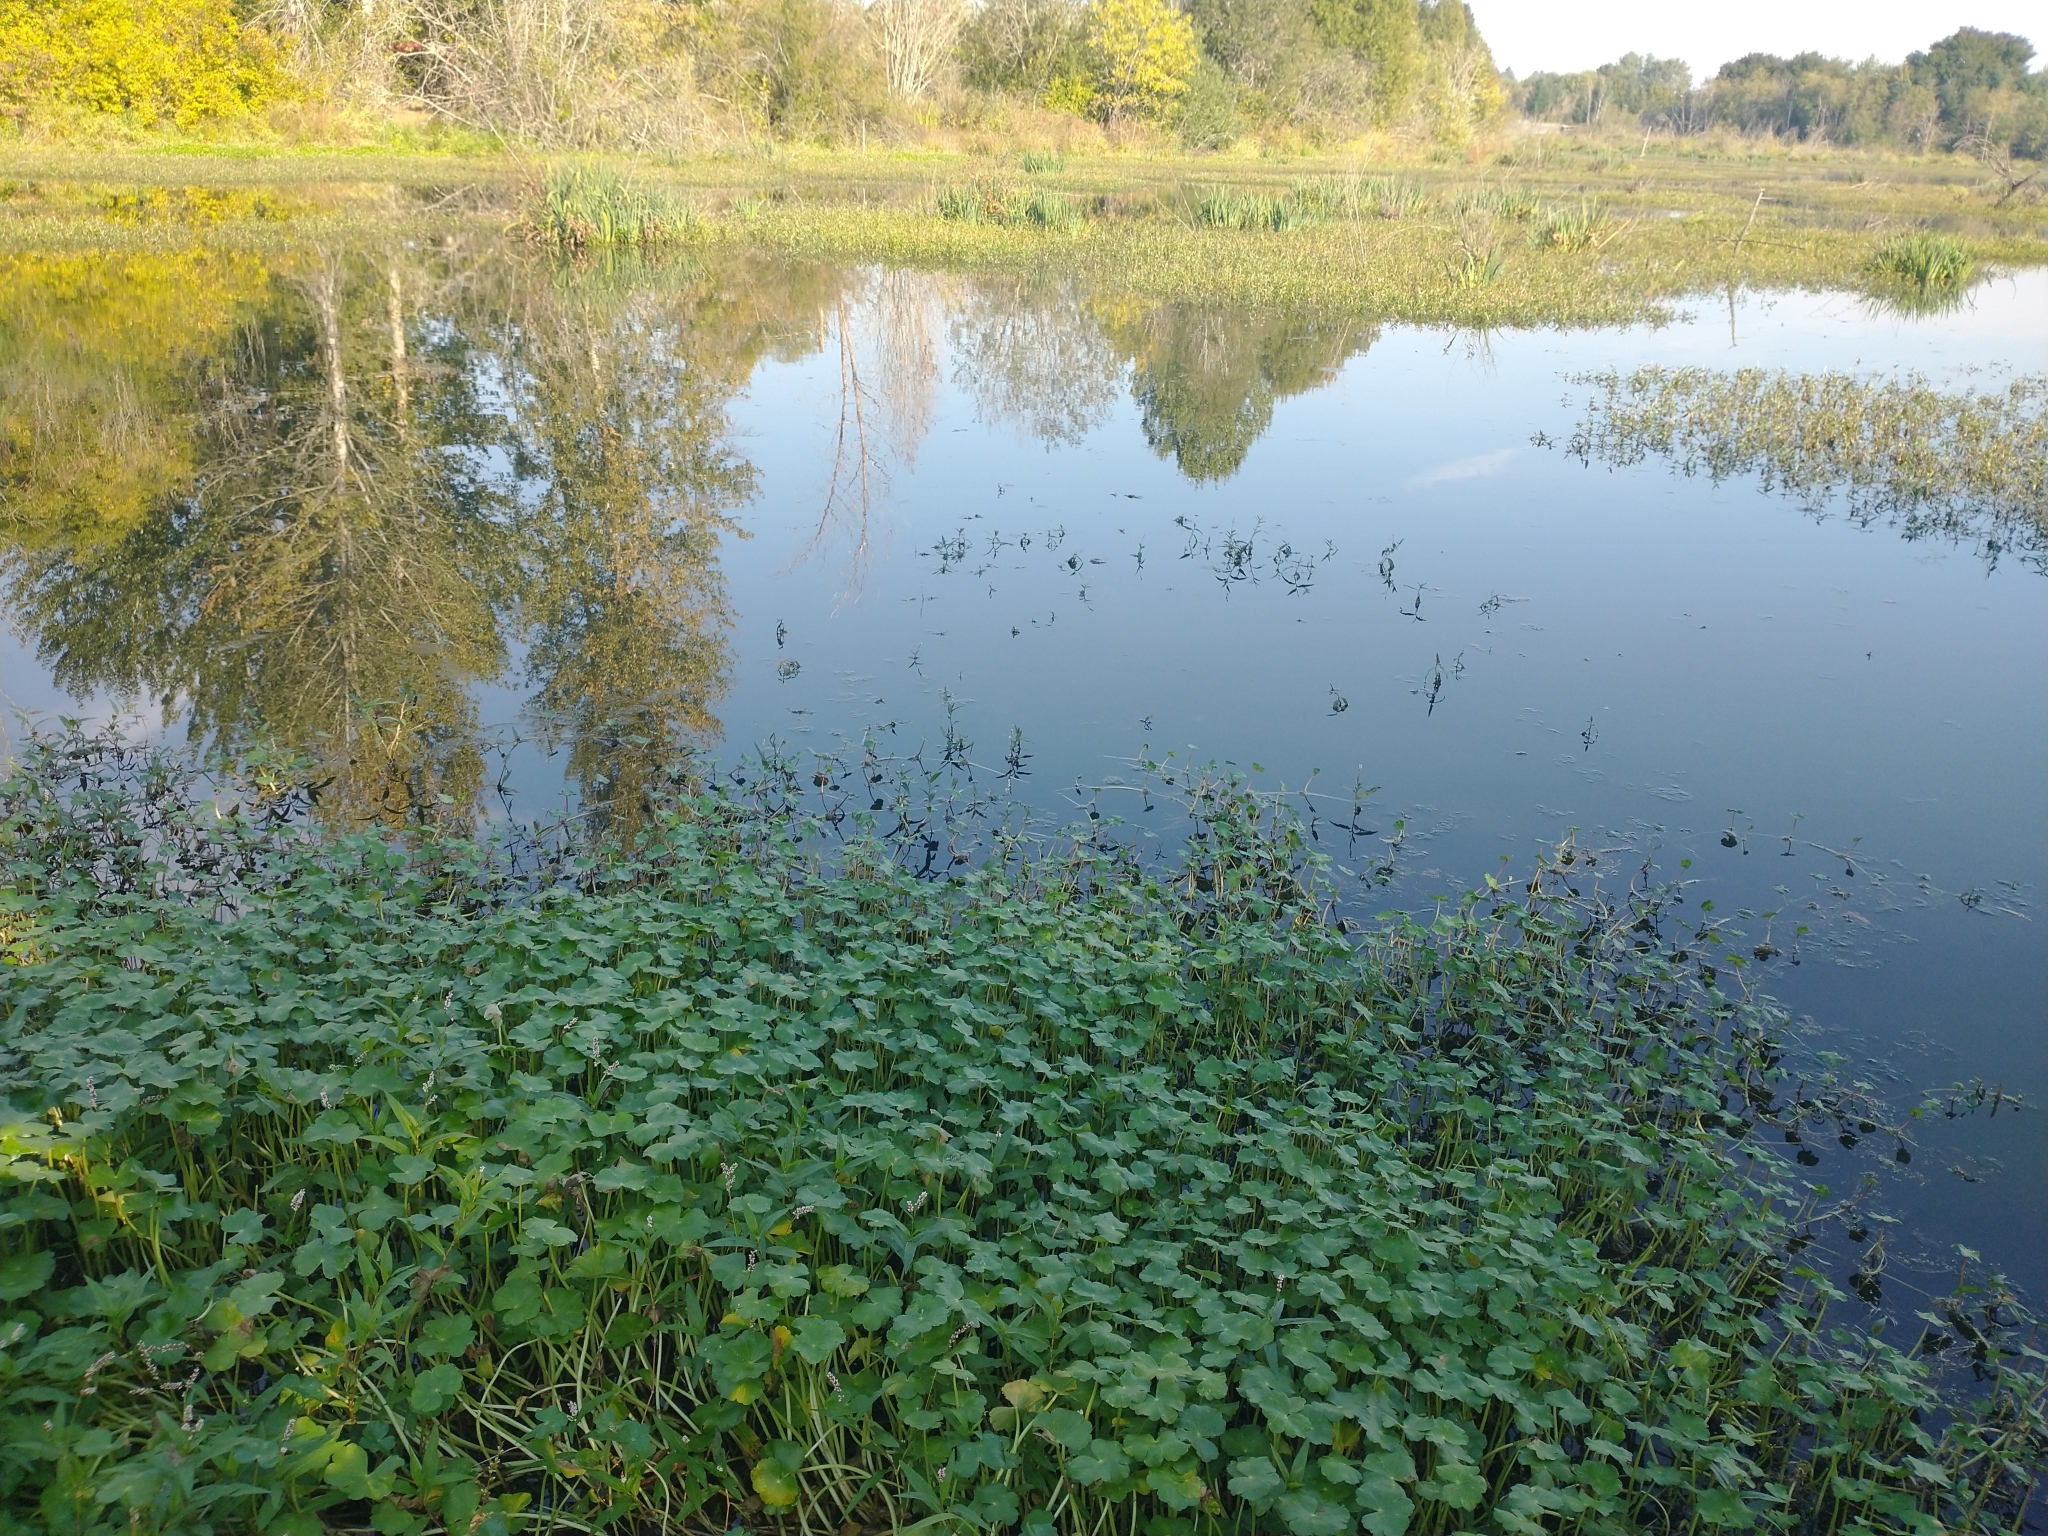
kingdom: Plantae
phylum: Tracheophyta
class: Magnoliopsida
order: Apiales
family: Araliaceae
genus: Hydrocotyle
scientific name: Hydrocotyle ranunculoides
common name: Floating pennywort
